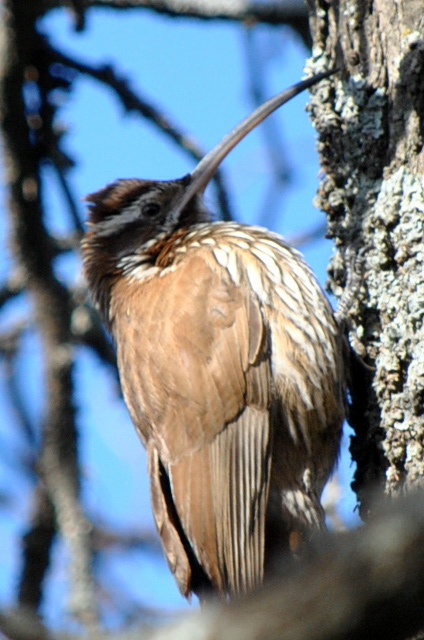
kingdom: Animalia
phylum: Chordata
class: Aves
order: Passeriformes
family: Furnariidae
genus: Drymornis
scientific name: Drymornis bridgesii
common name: Scimitar-billed woodcreeper
